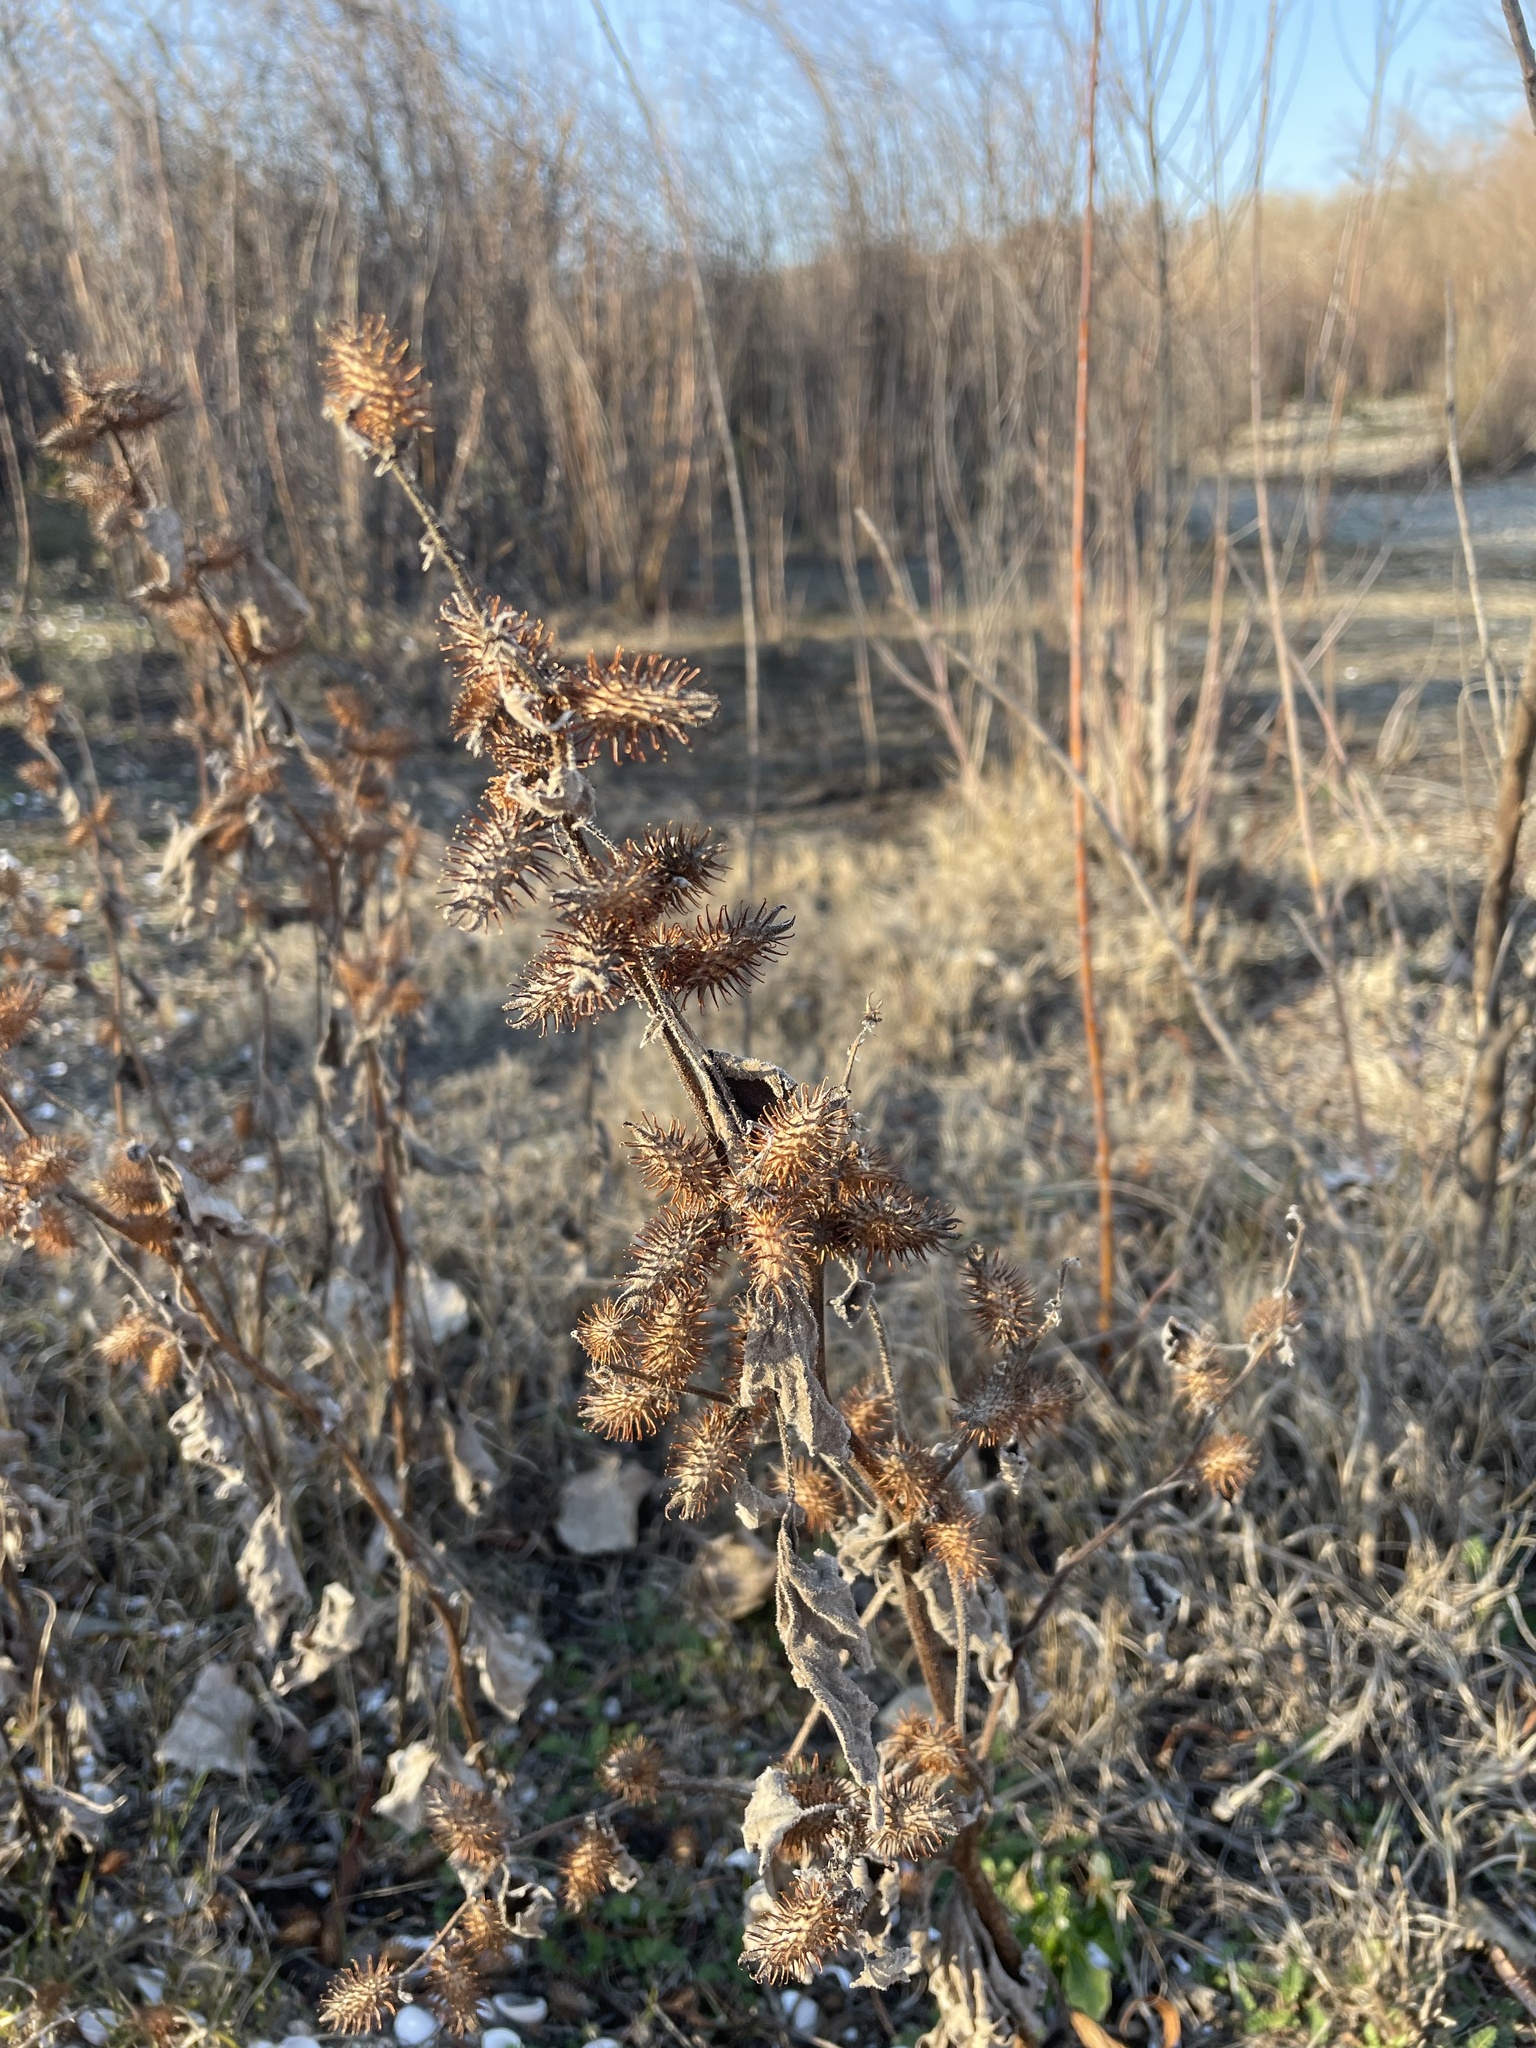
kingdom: Plantae
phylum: Tracheophyta
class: Magnoliopsida
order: Asterales
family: Asteraceae
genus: Xanthium
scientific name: Xanthium strumarium
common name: Rough cocklebur
